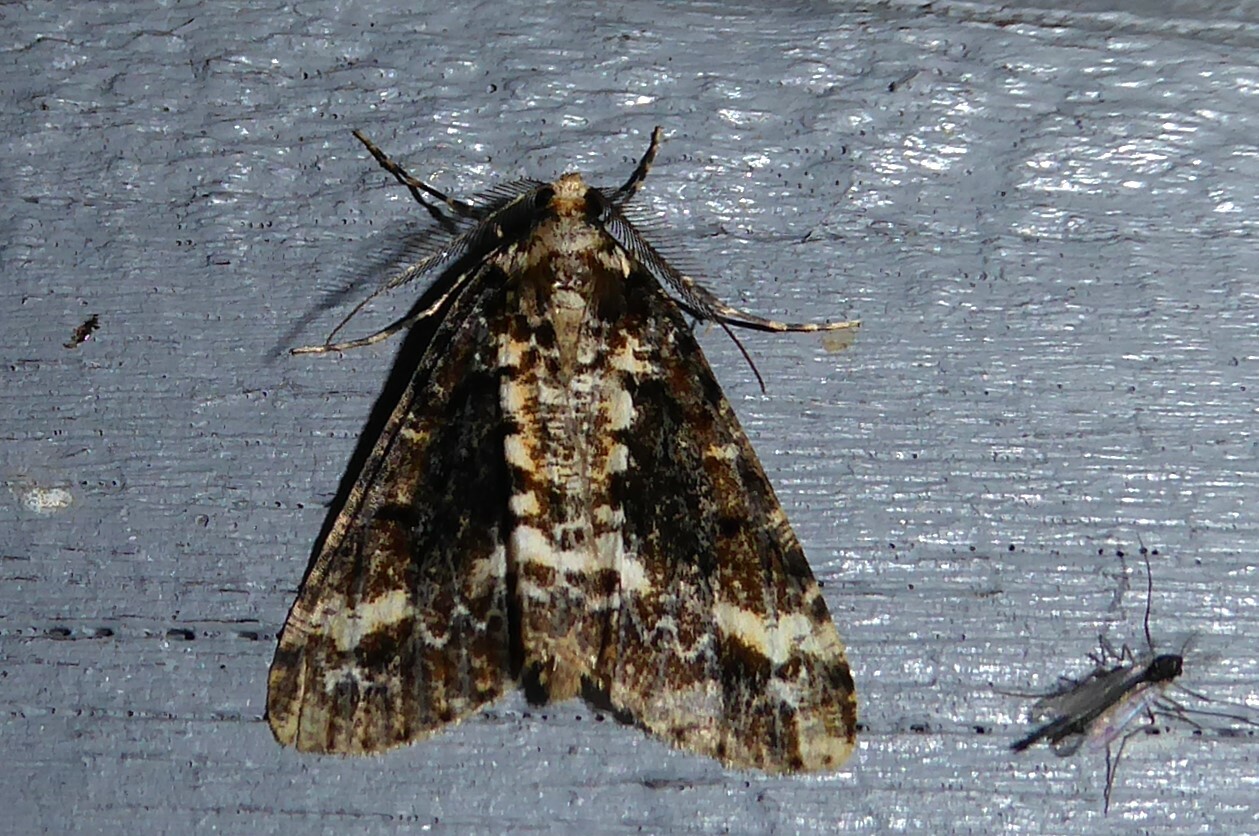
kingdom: Animalia
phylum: Arthropoda
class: Insecta
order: Lepidoptera
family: Geometridae
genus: Pseudocoremia
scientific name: Pseudocoremia leucelaea
